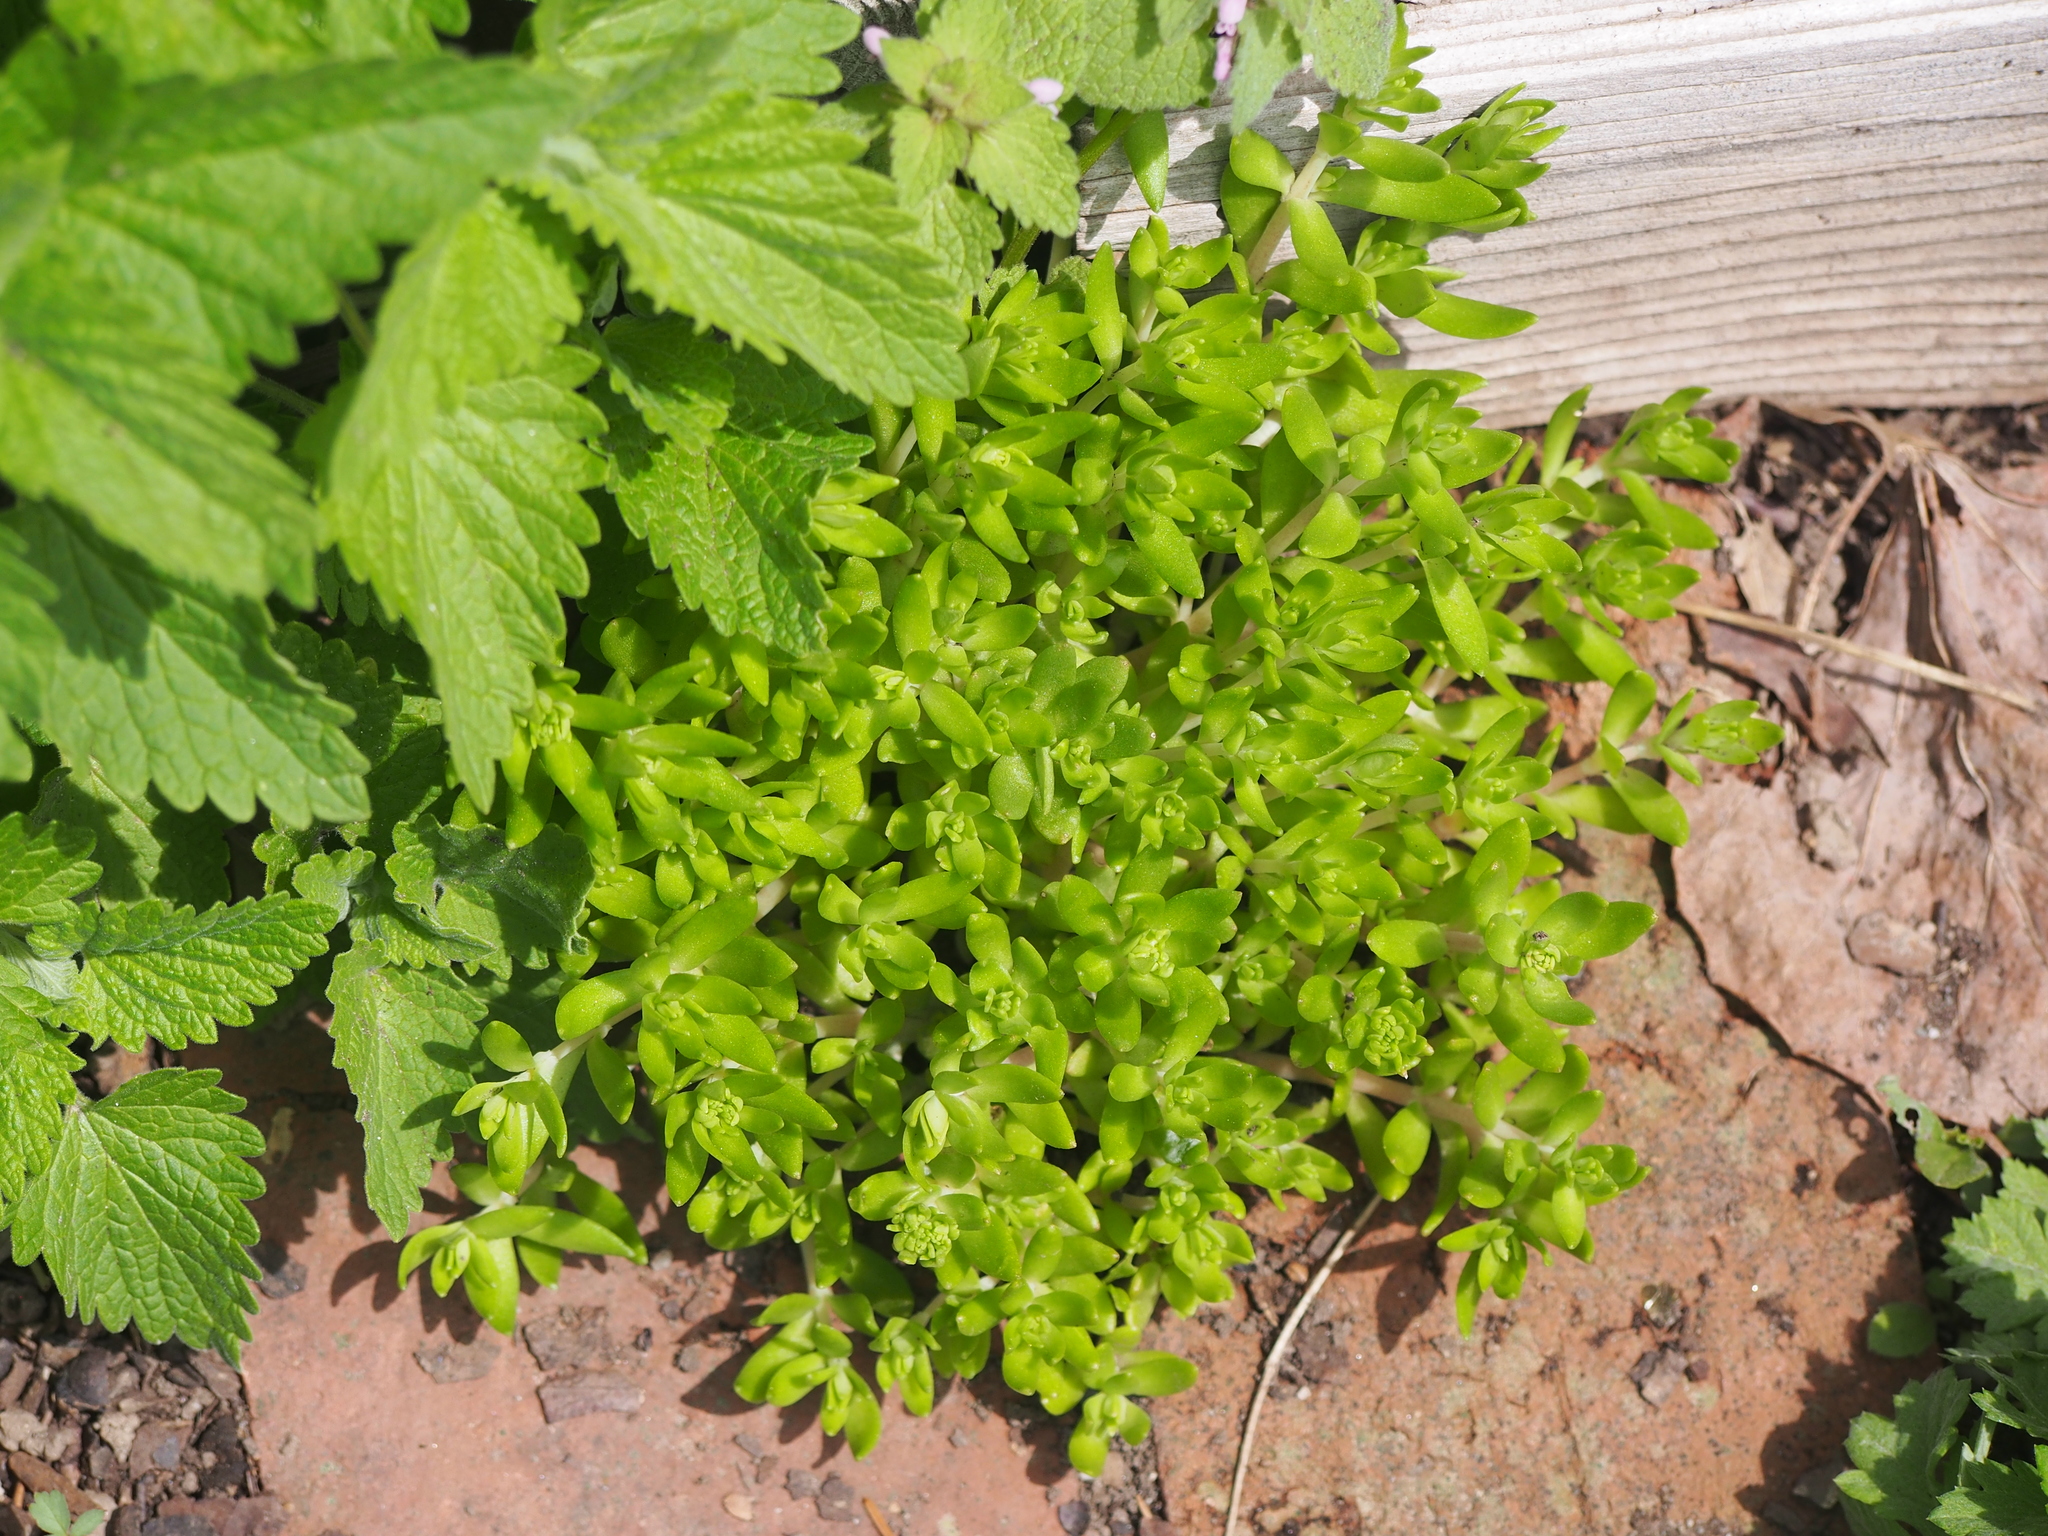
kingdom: Plantae
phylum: Tracheophyta
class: Magnoliopsida
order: Saxifragales
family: Crassulaceae
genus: Sedum
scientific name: Sedum sarmentosum
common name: Stringy stonecrop
